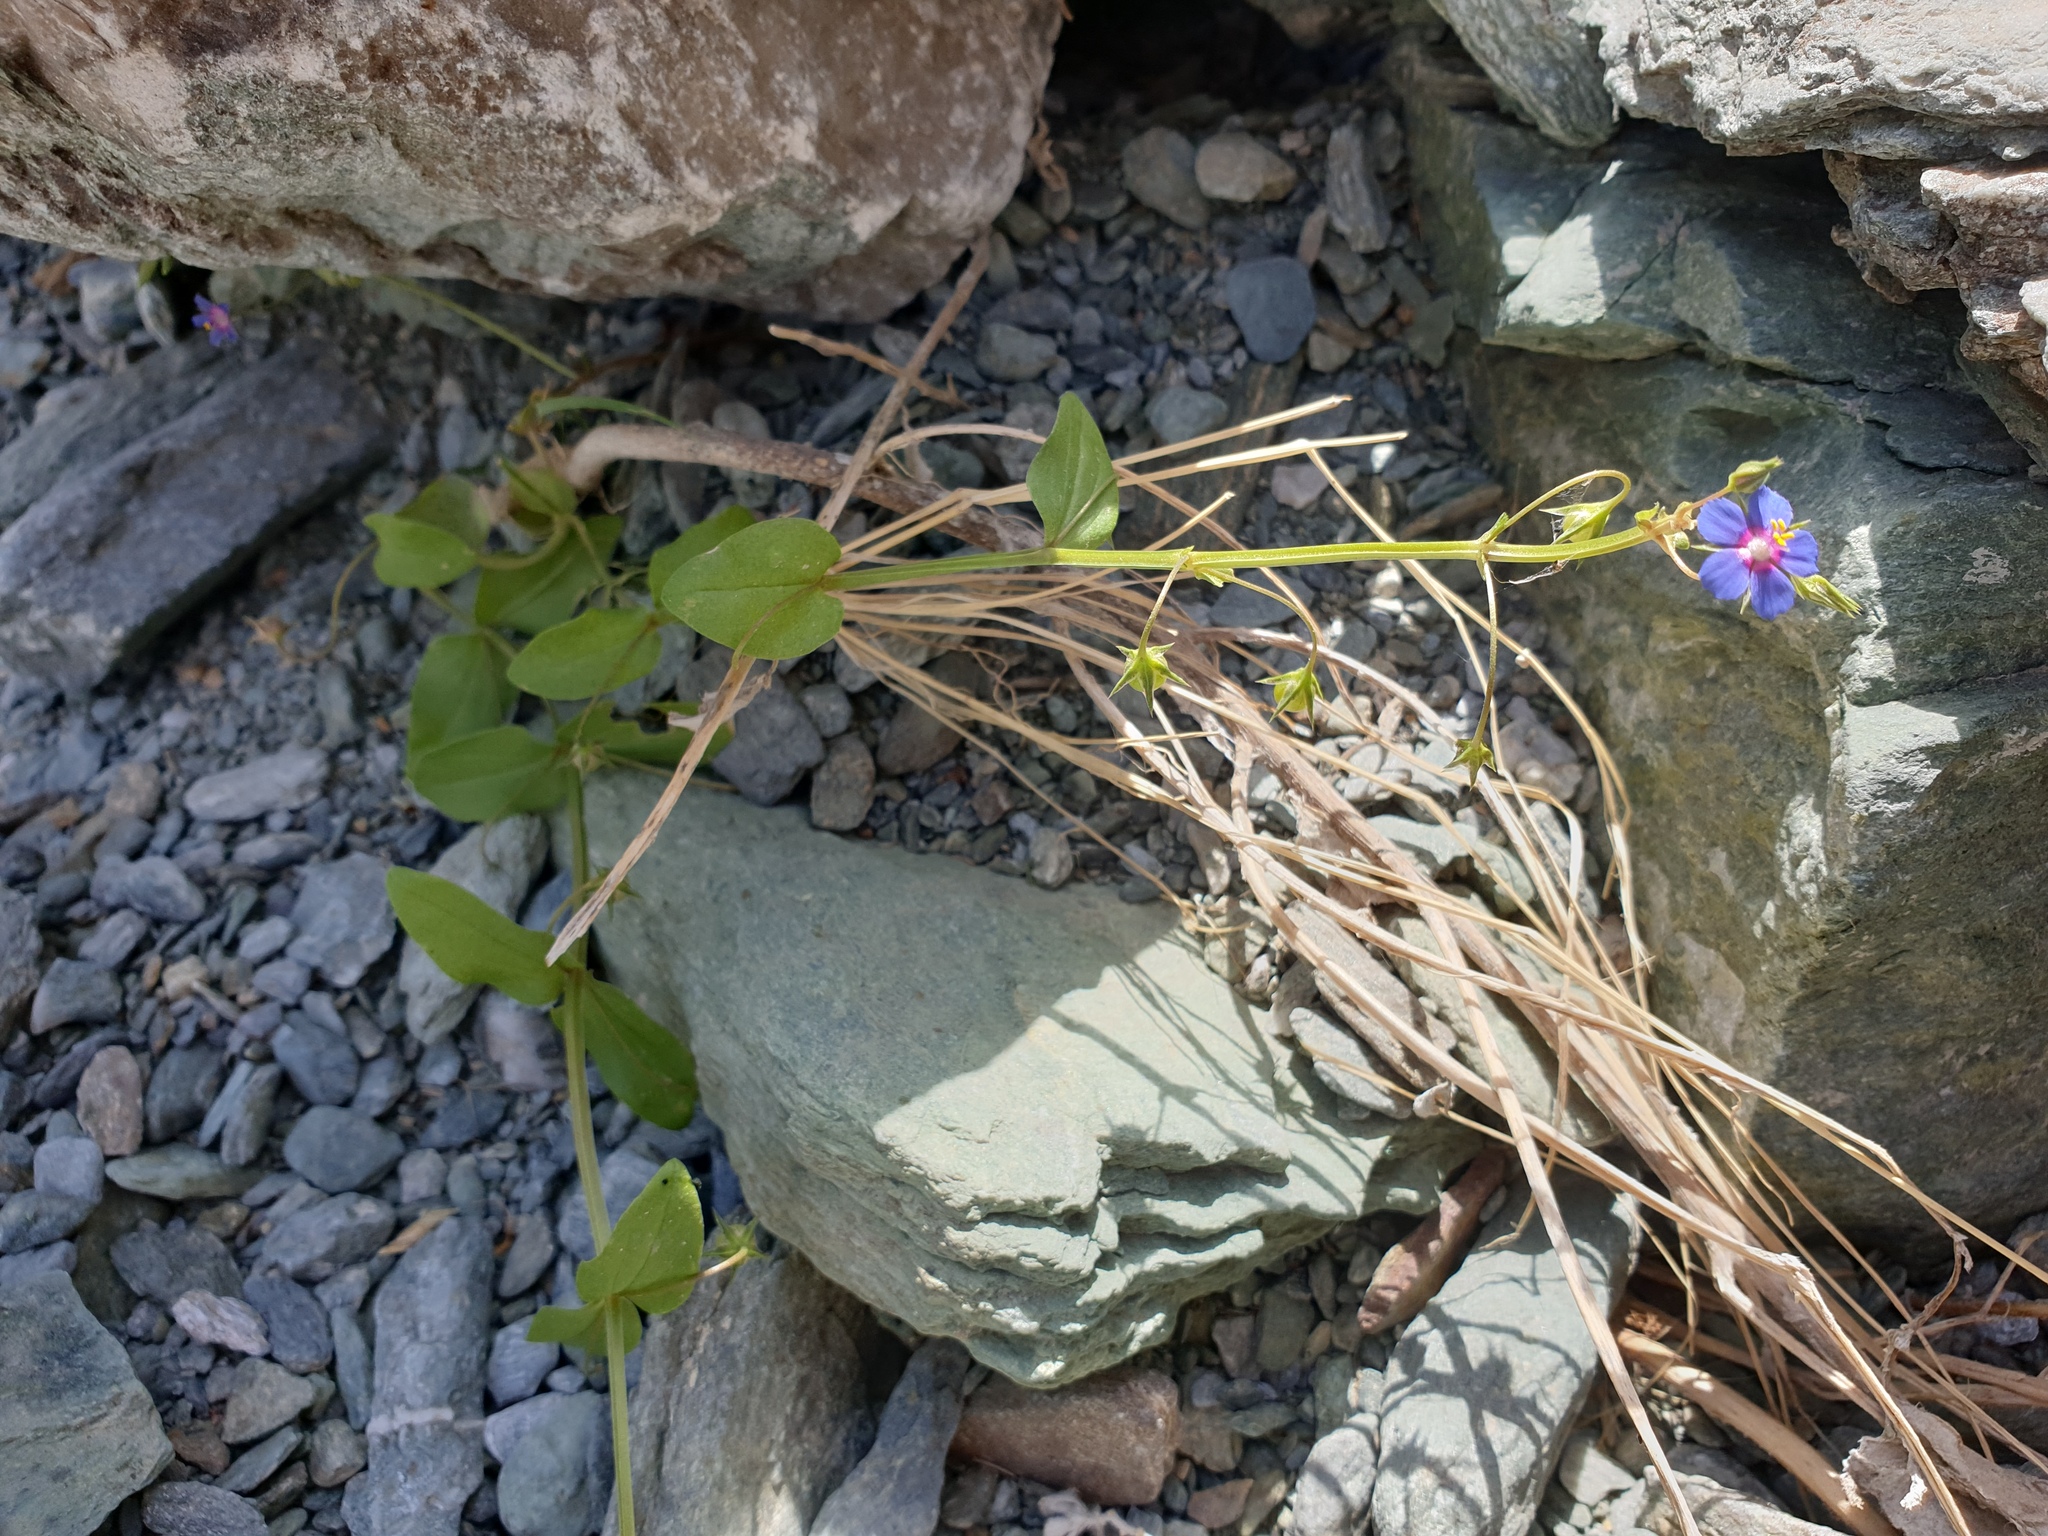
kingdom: Plantae
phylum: Tracheophyta
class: Magnoliopsida
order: Ericales
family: Primulaceae
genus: Lysimachia
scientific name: Lysimachia arvensis
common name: Scarlet pimpernel
